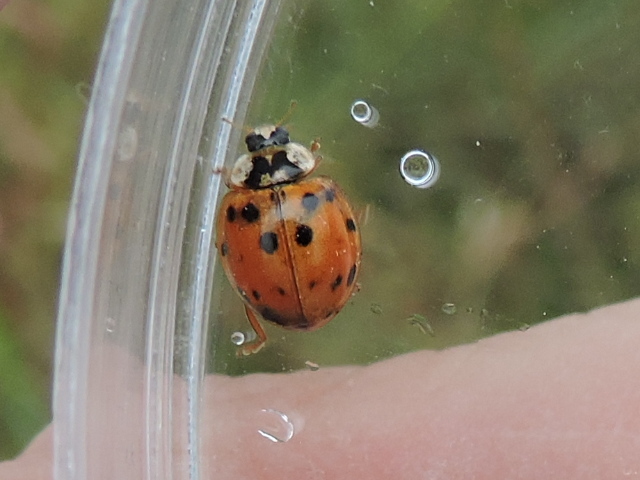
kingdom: Animalia
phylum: Arthropoda
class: Insecta
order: Coleoptera
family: Coccinellidae
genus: Harmonia
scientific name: Harmonia axyridis
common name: Harlequin ladybird
